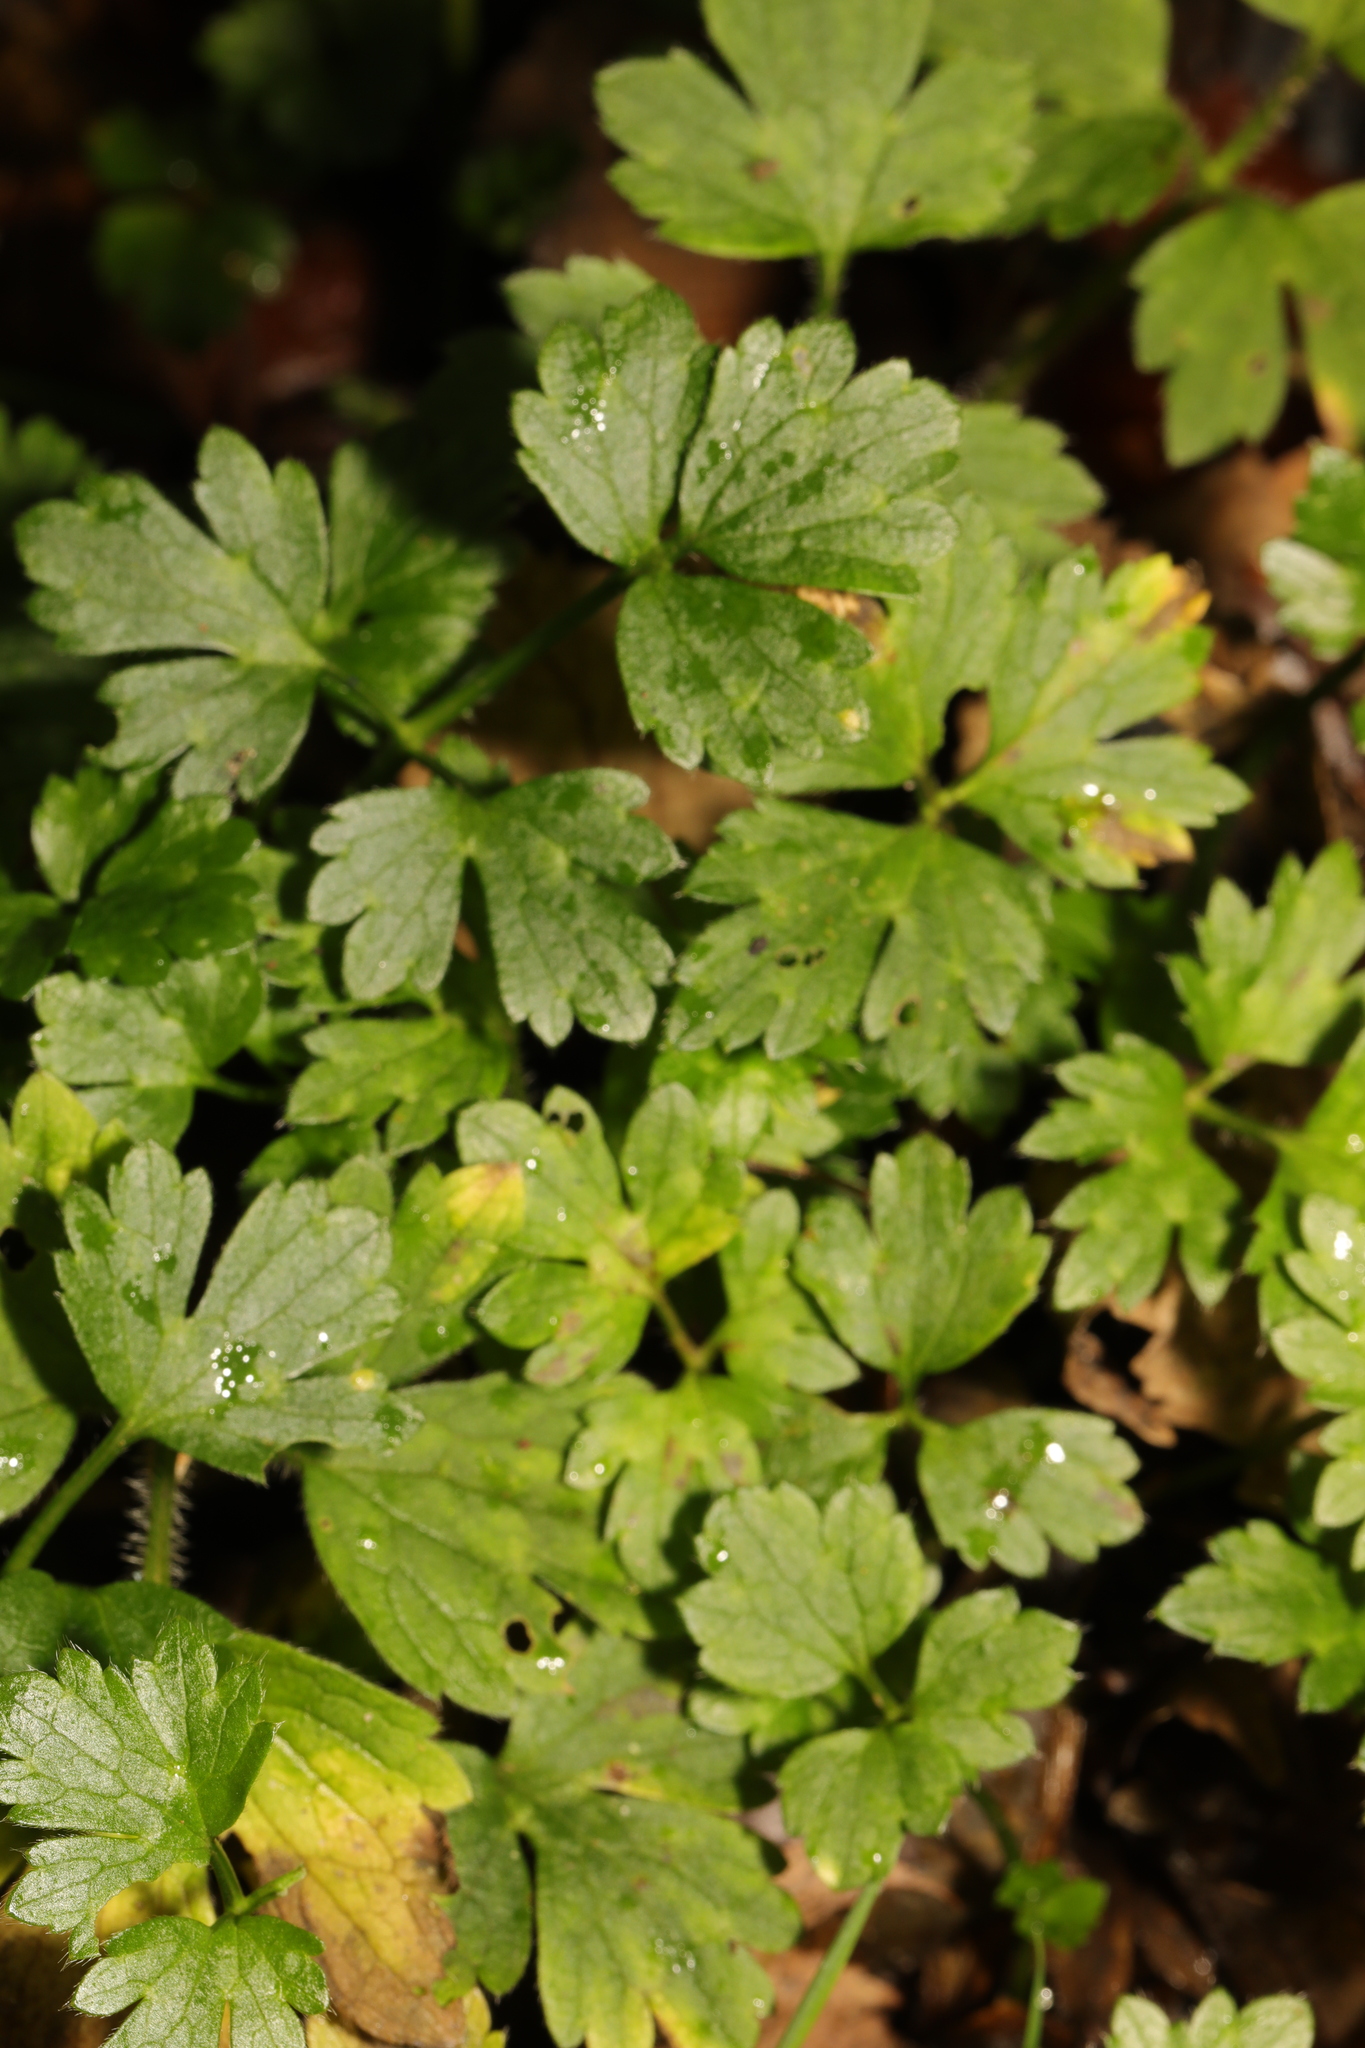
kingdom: Plantae
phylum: Tracheophyta
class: Magnoliopsida
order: Ranunculales
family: Ranunculaceae
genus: Ranunculus
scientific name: Ranunculus repens
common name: Creeping buttercup
